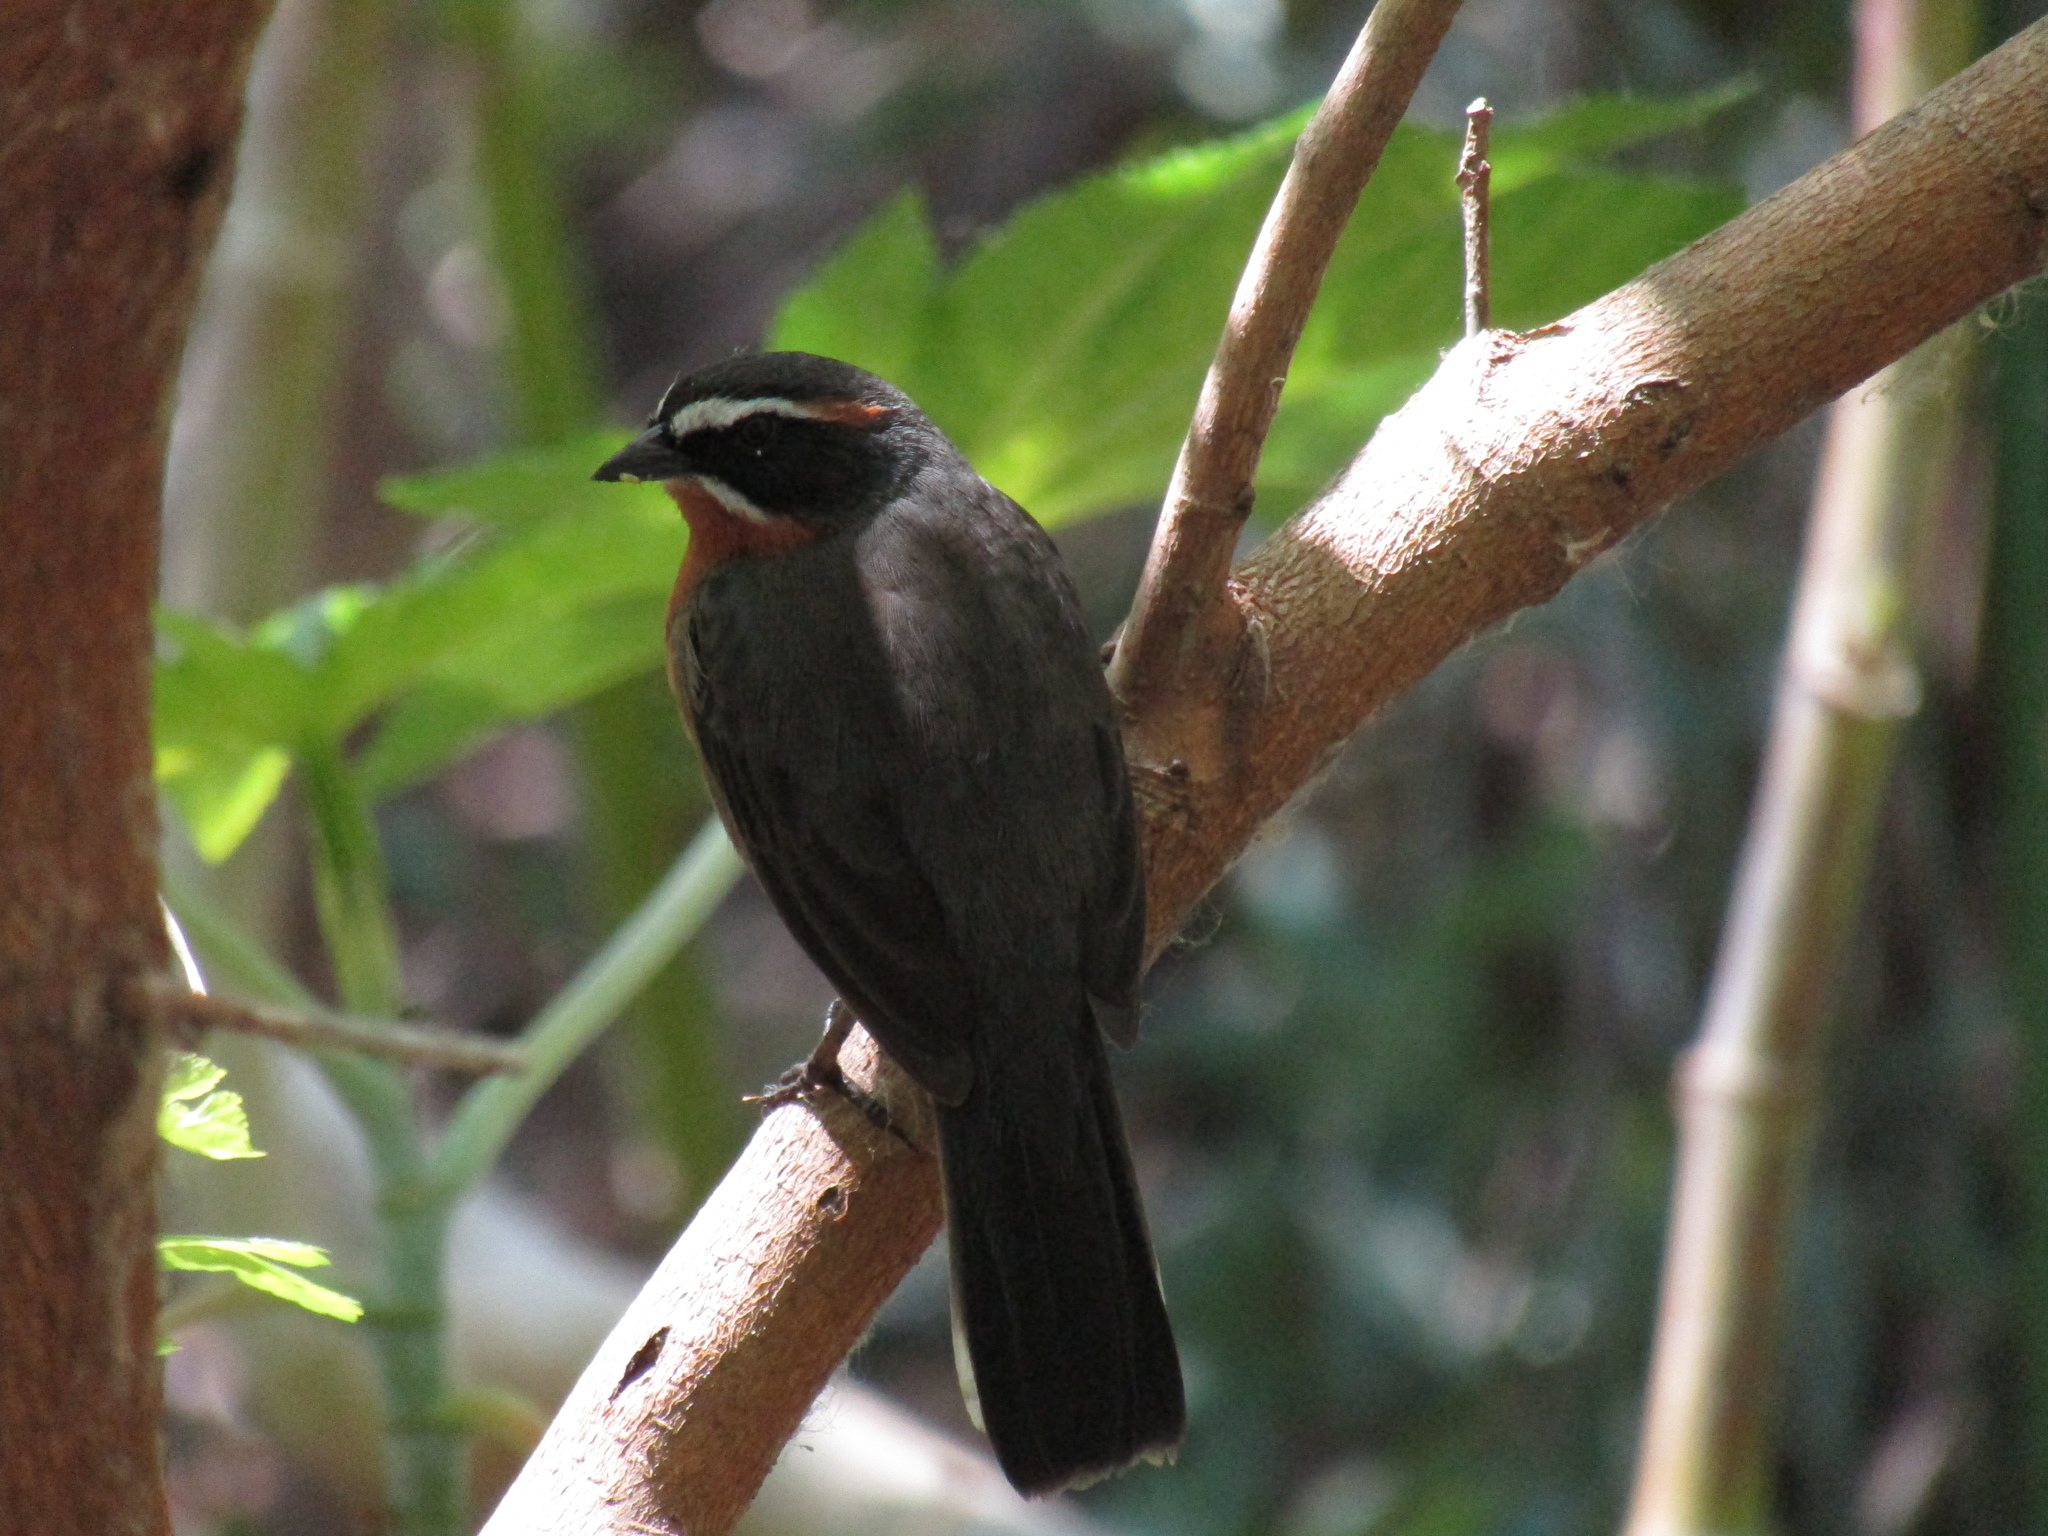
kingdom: Animalia
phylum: Chordata
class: Aves
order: Passeriformes
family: Thraupidae
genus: Poospiza
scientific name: Poospiza nigrorufa
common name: Black-and-rufous warbling finch
